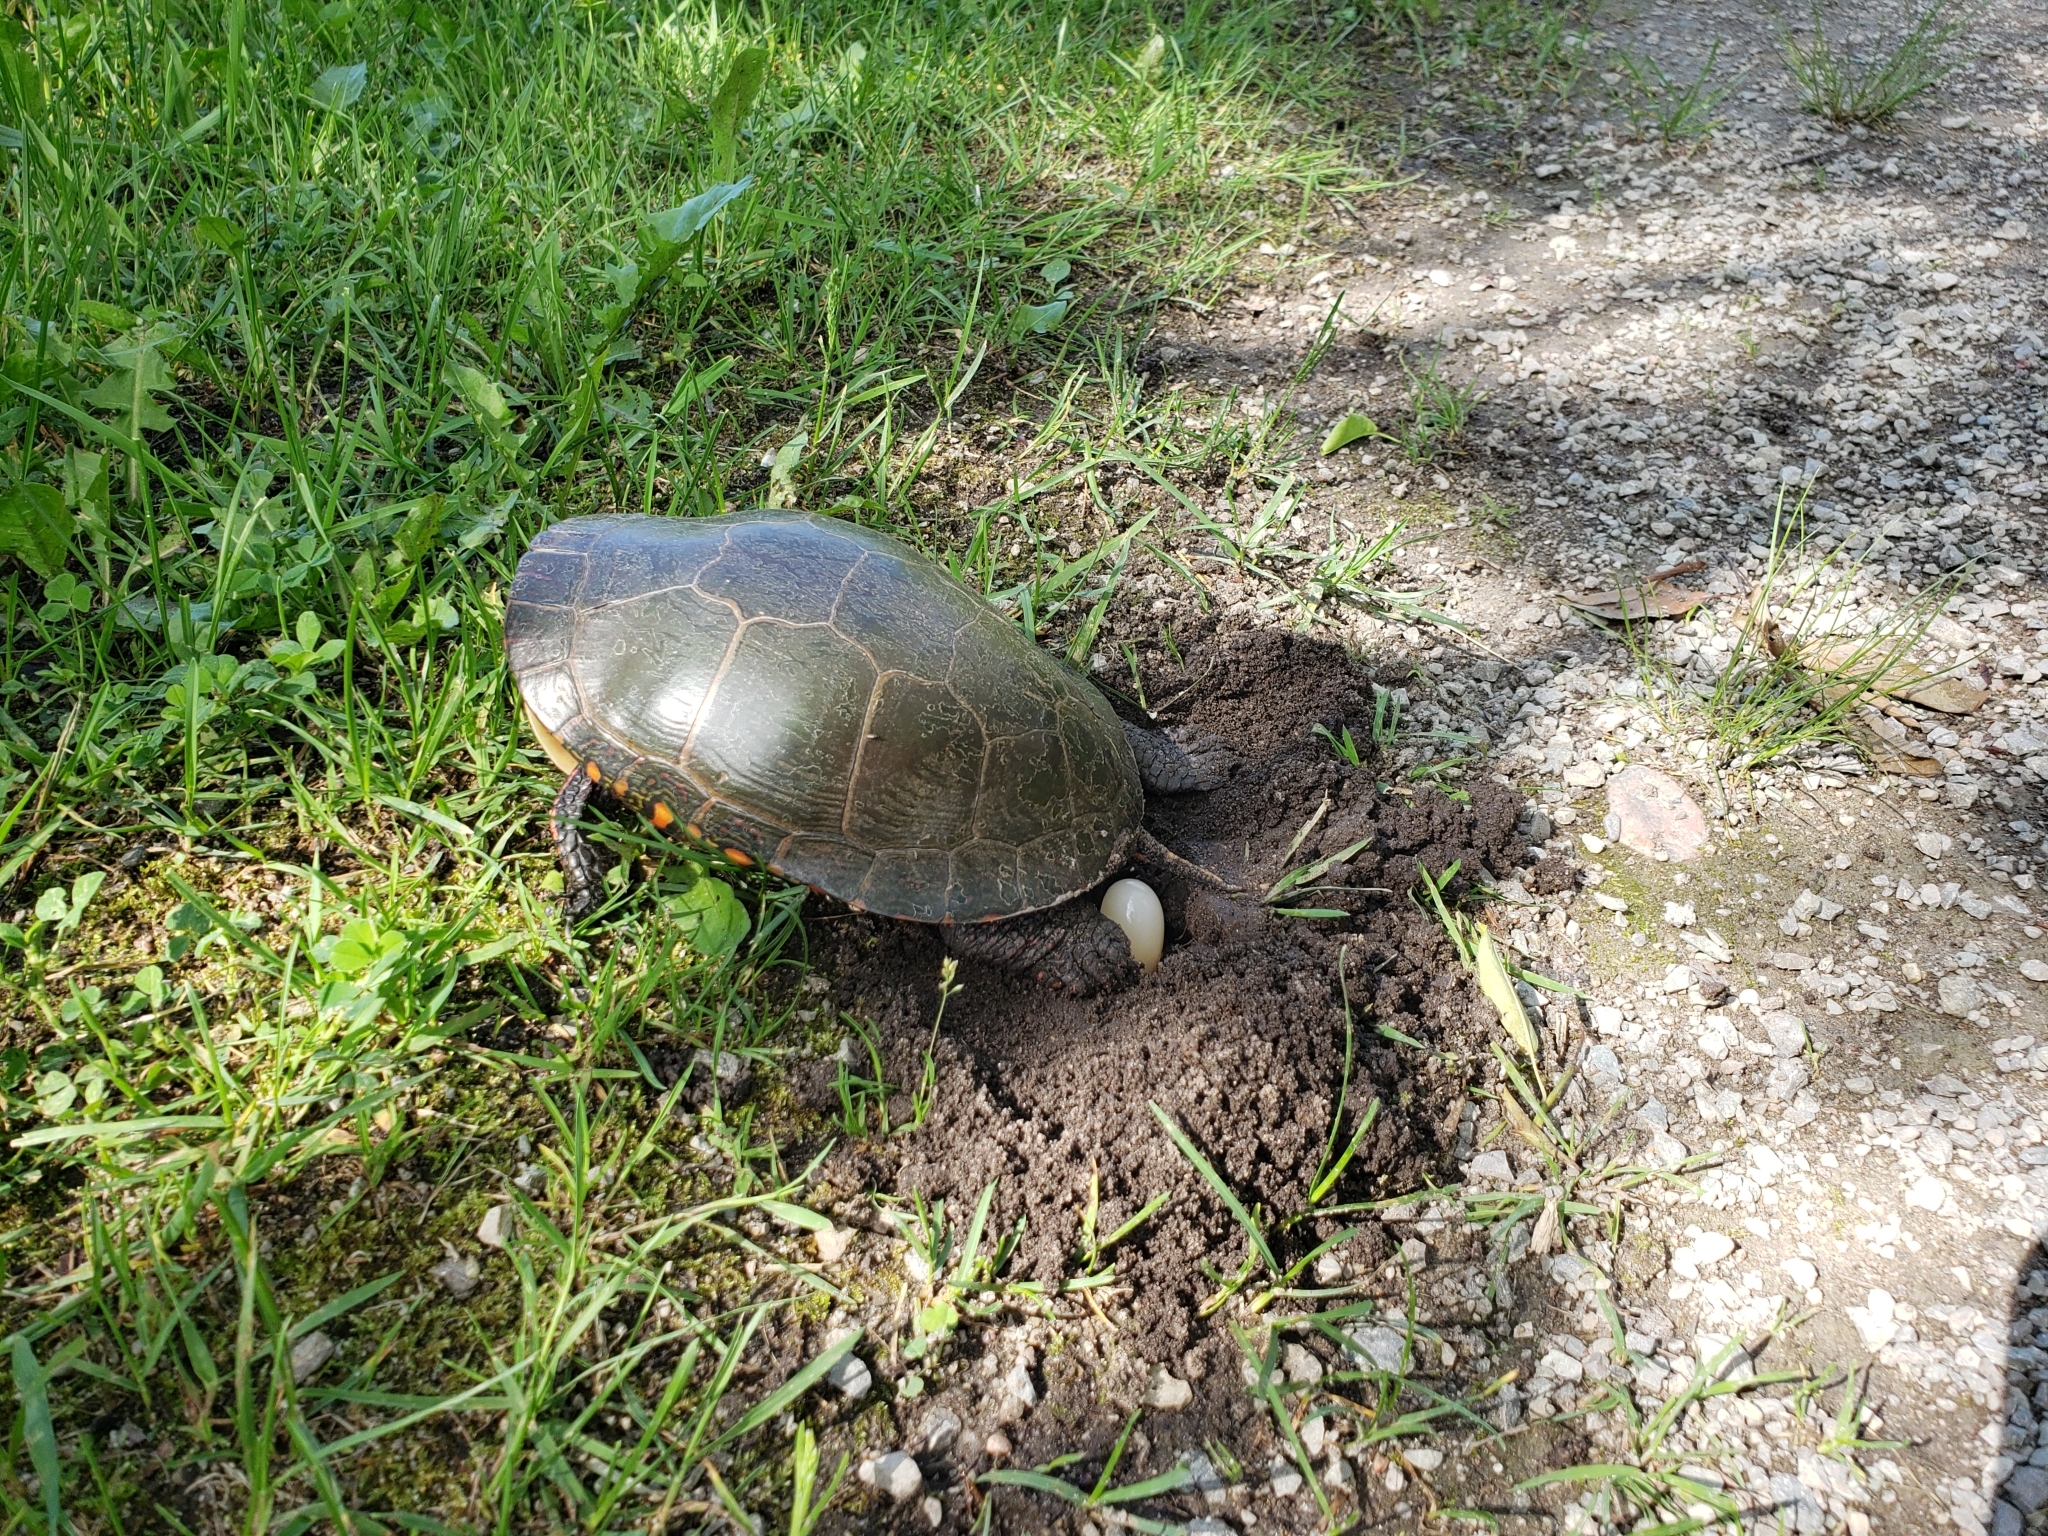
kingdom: Animalia
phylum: Chordata
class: Testudines
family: Emydidae
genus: Chrysemys
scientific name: Chrysemys picta
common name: Painted turtle
